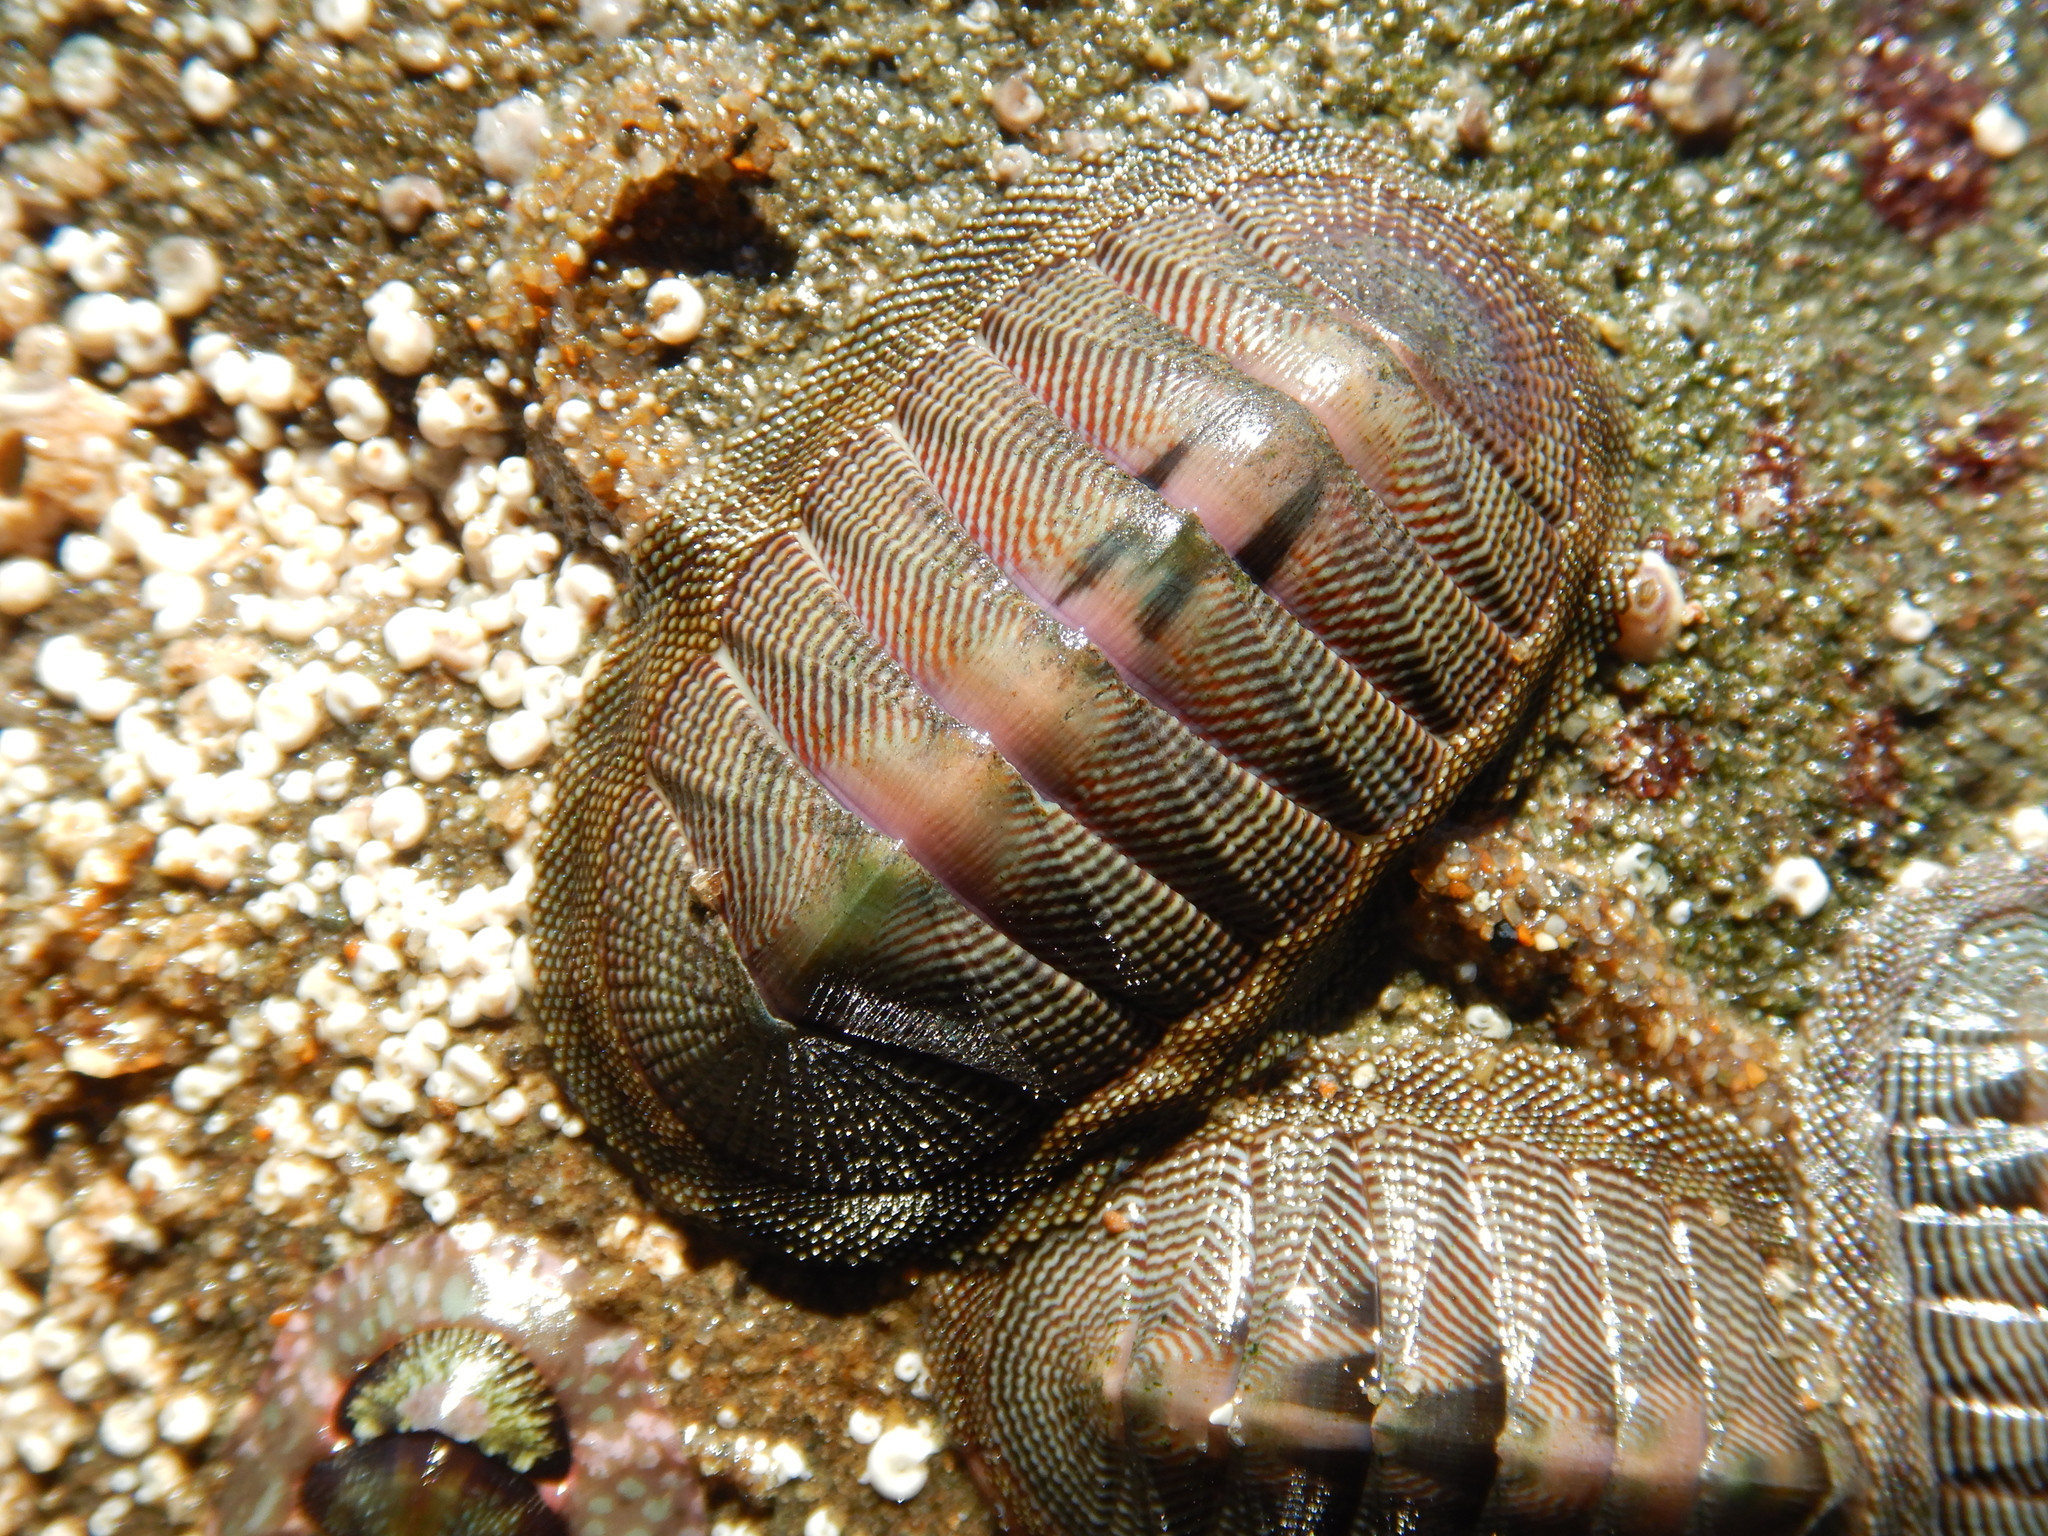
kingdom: Animalia
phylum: Mollusca
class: Polyplacophora
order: Chitonida
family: Chitonidae
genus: Chiton
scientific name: Chiton cumingsii
